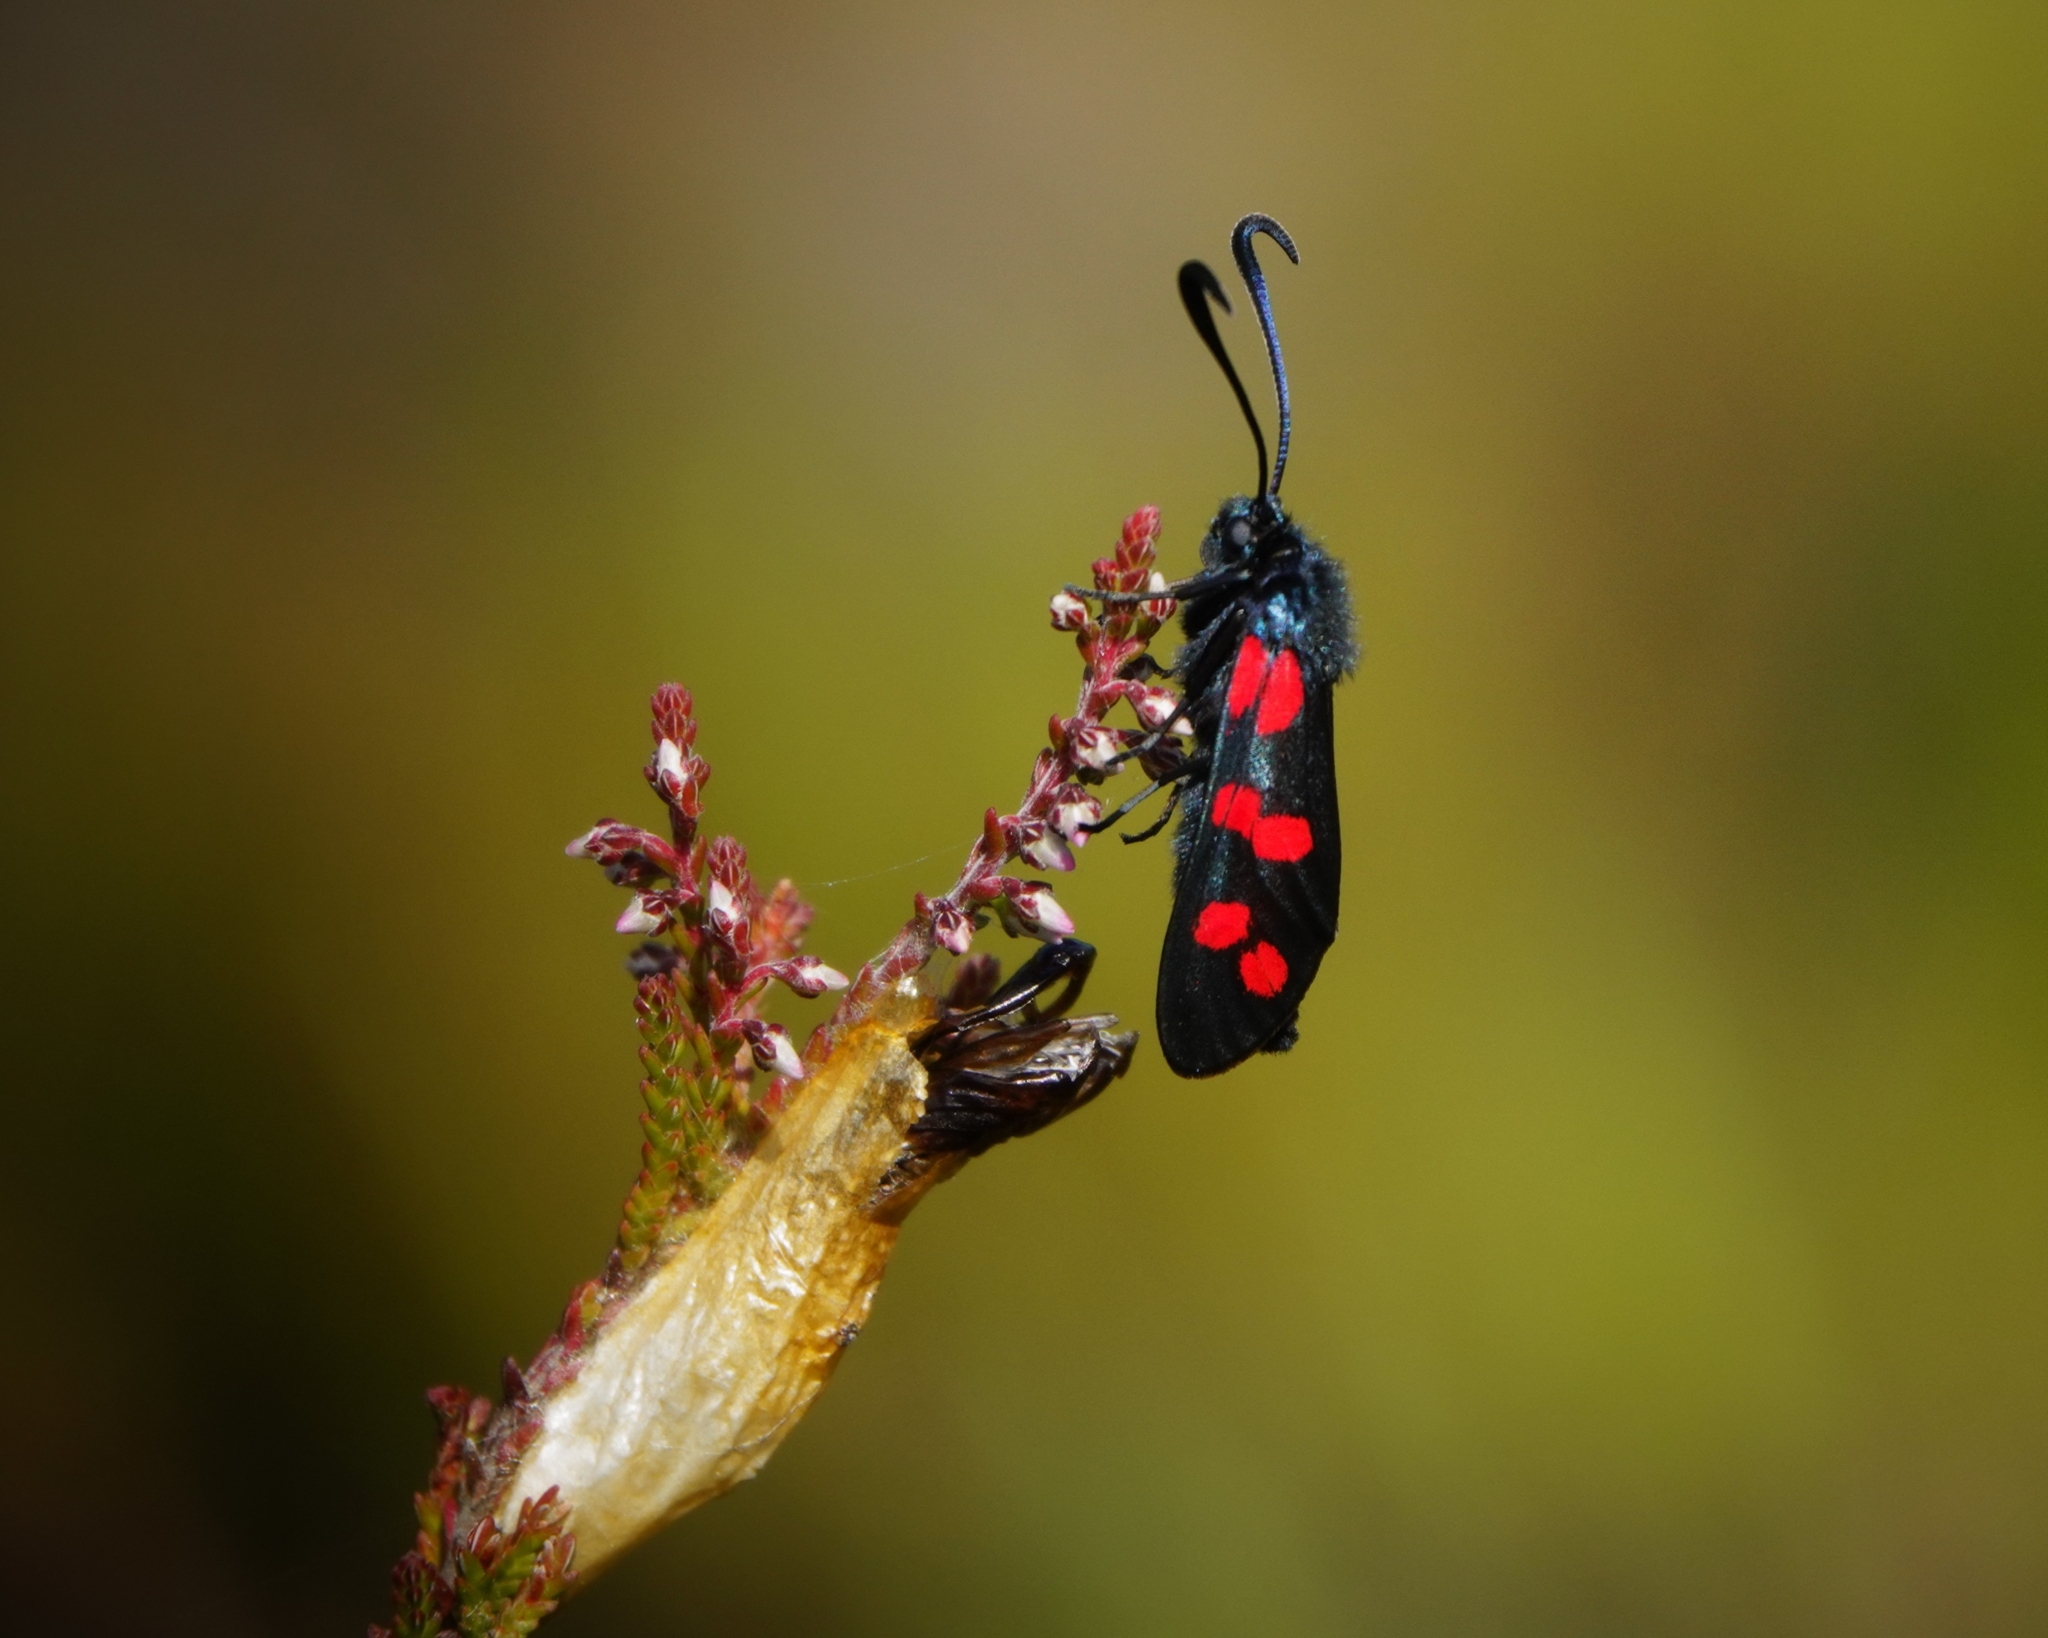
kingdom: Animalia
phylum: Arthropoda
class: Insecta
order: Lepidoptera
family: Zygaenidae
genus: Zygaena
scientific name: Zygaena filipendulae
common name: Six-spot burnet
